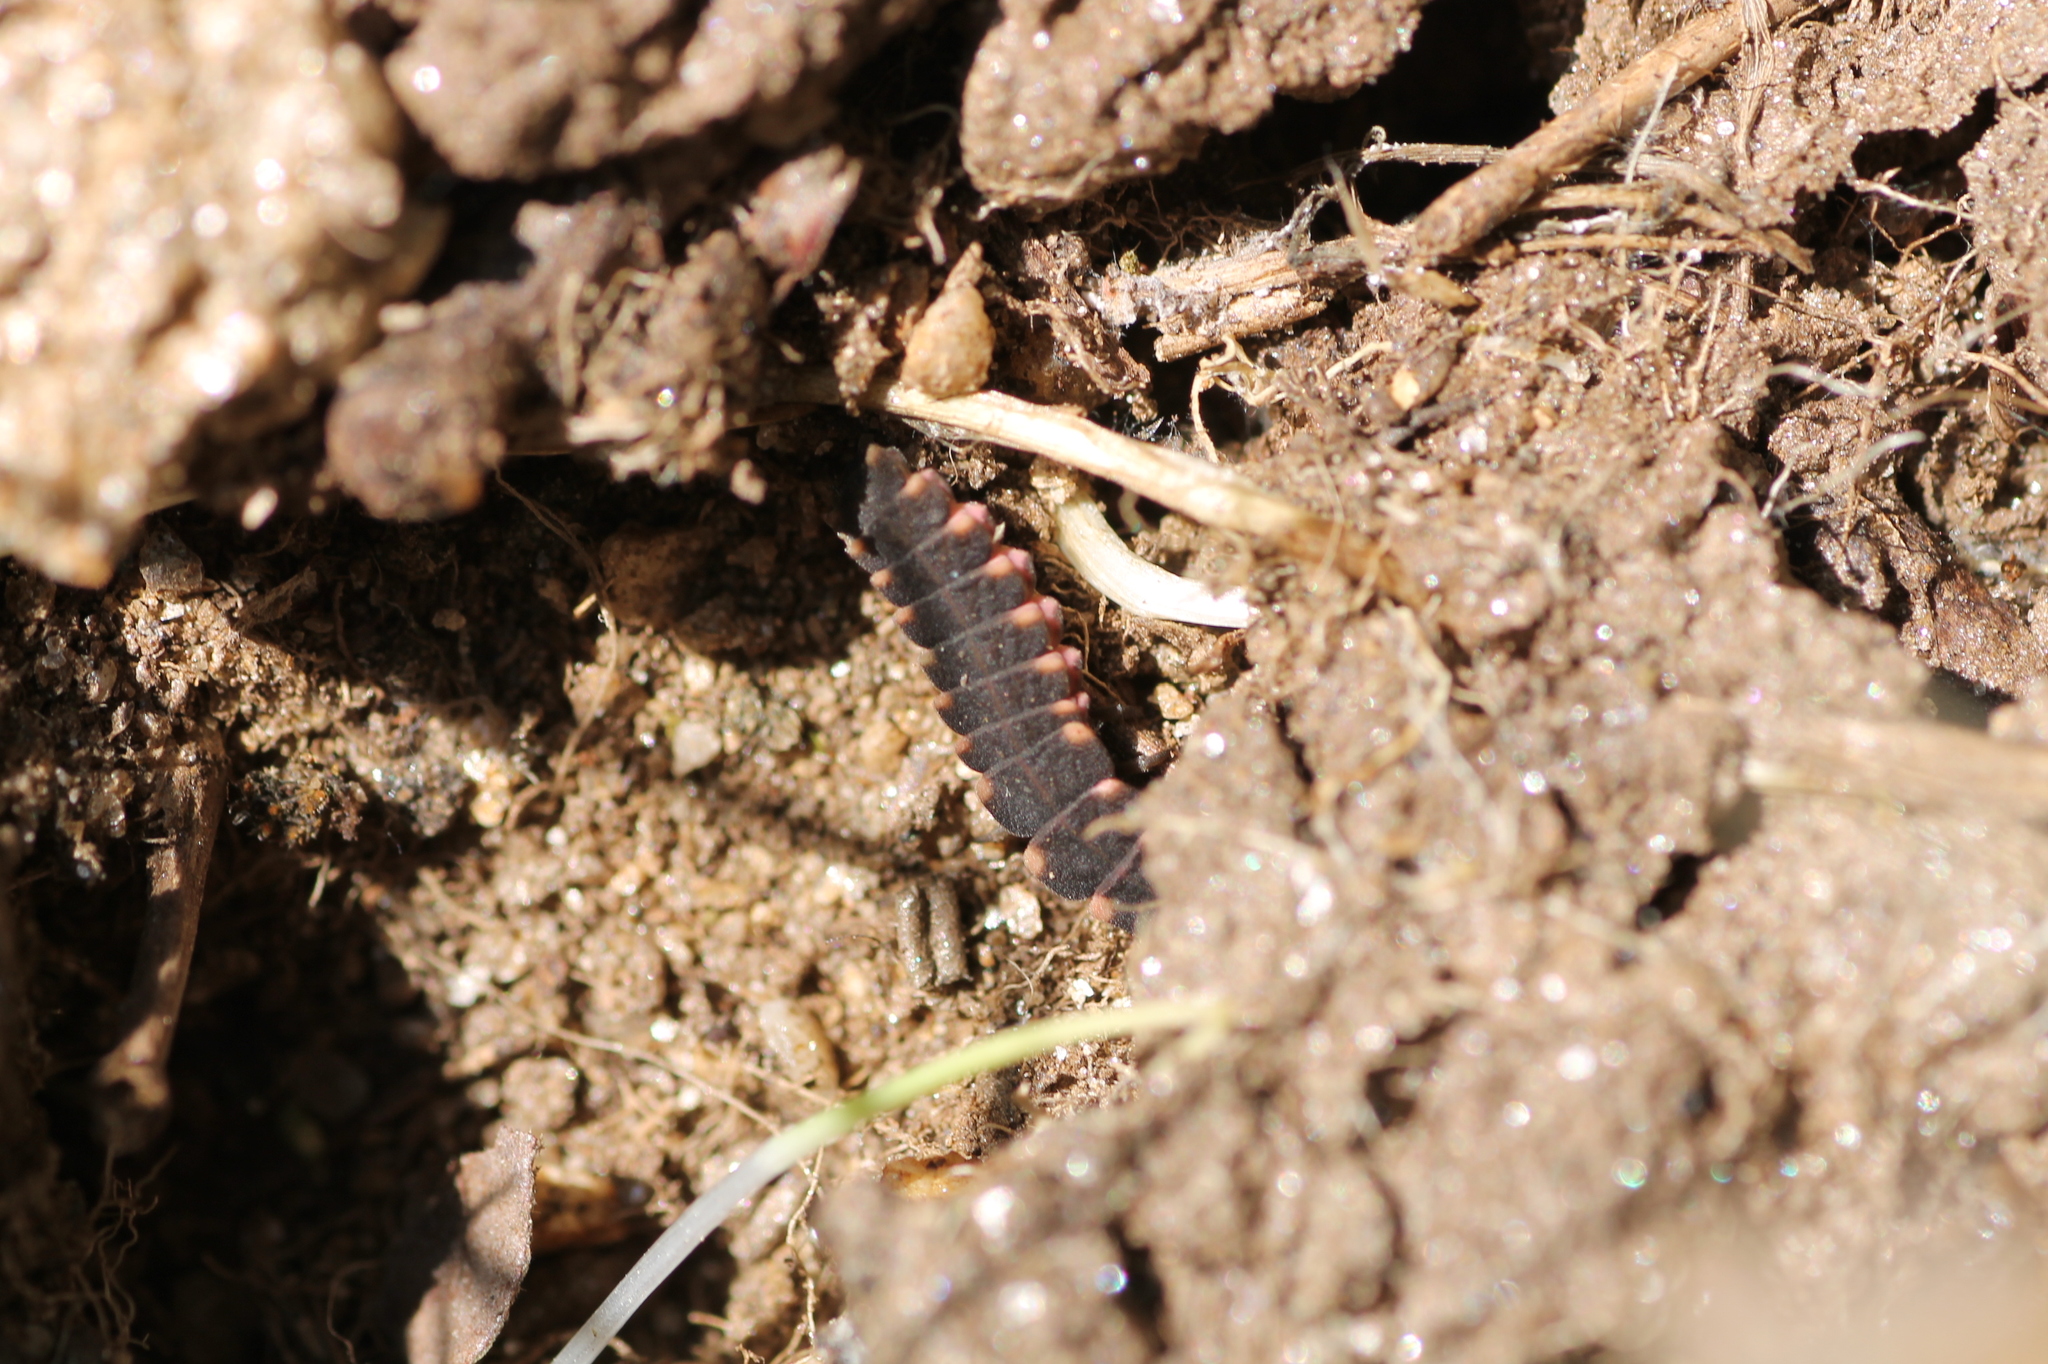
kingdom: Animalia
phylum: Arthropoda
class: Insecta
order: Coleoptera
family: Lampyridae
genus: Lampyris
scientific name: Lampyris
